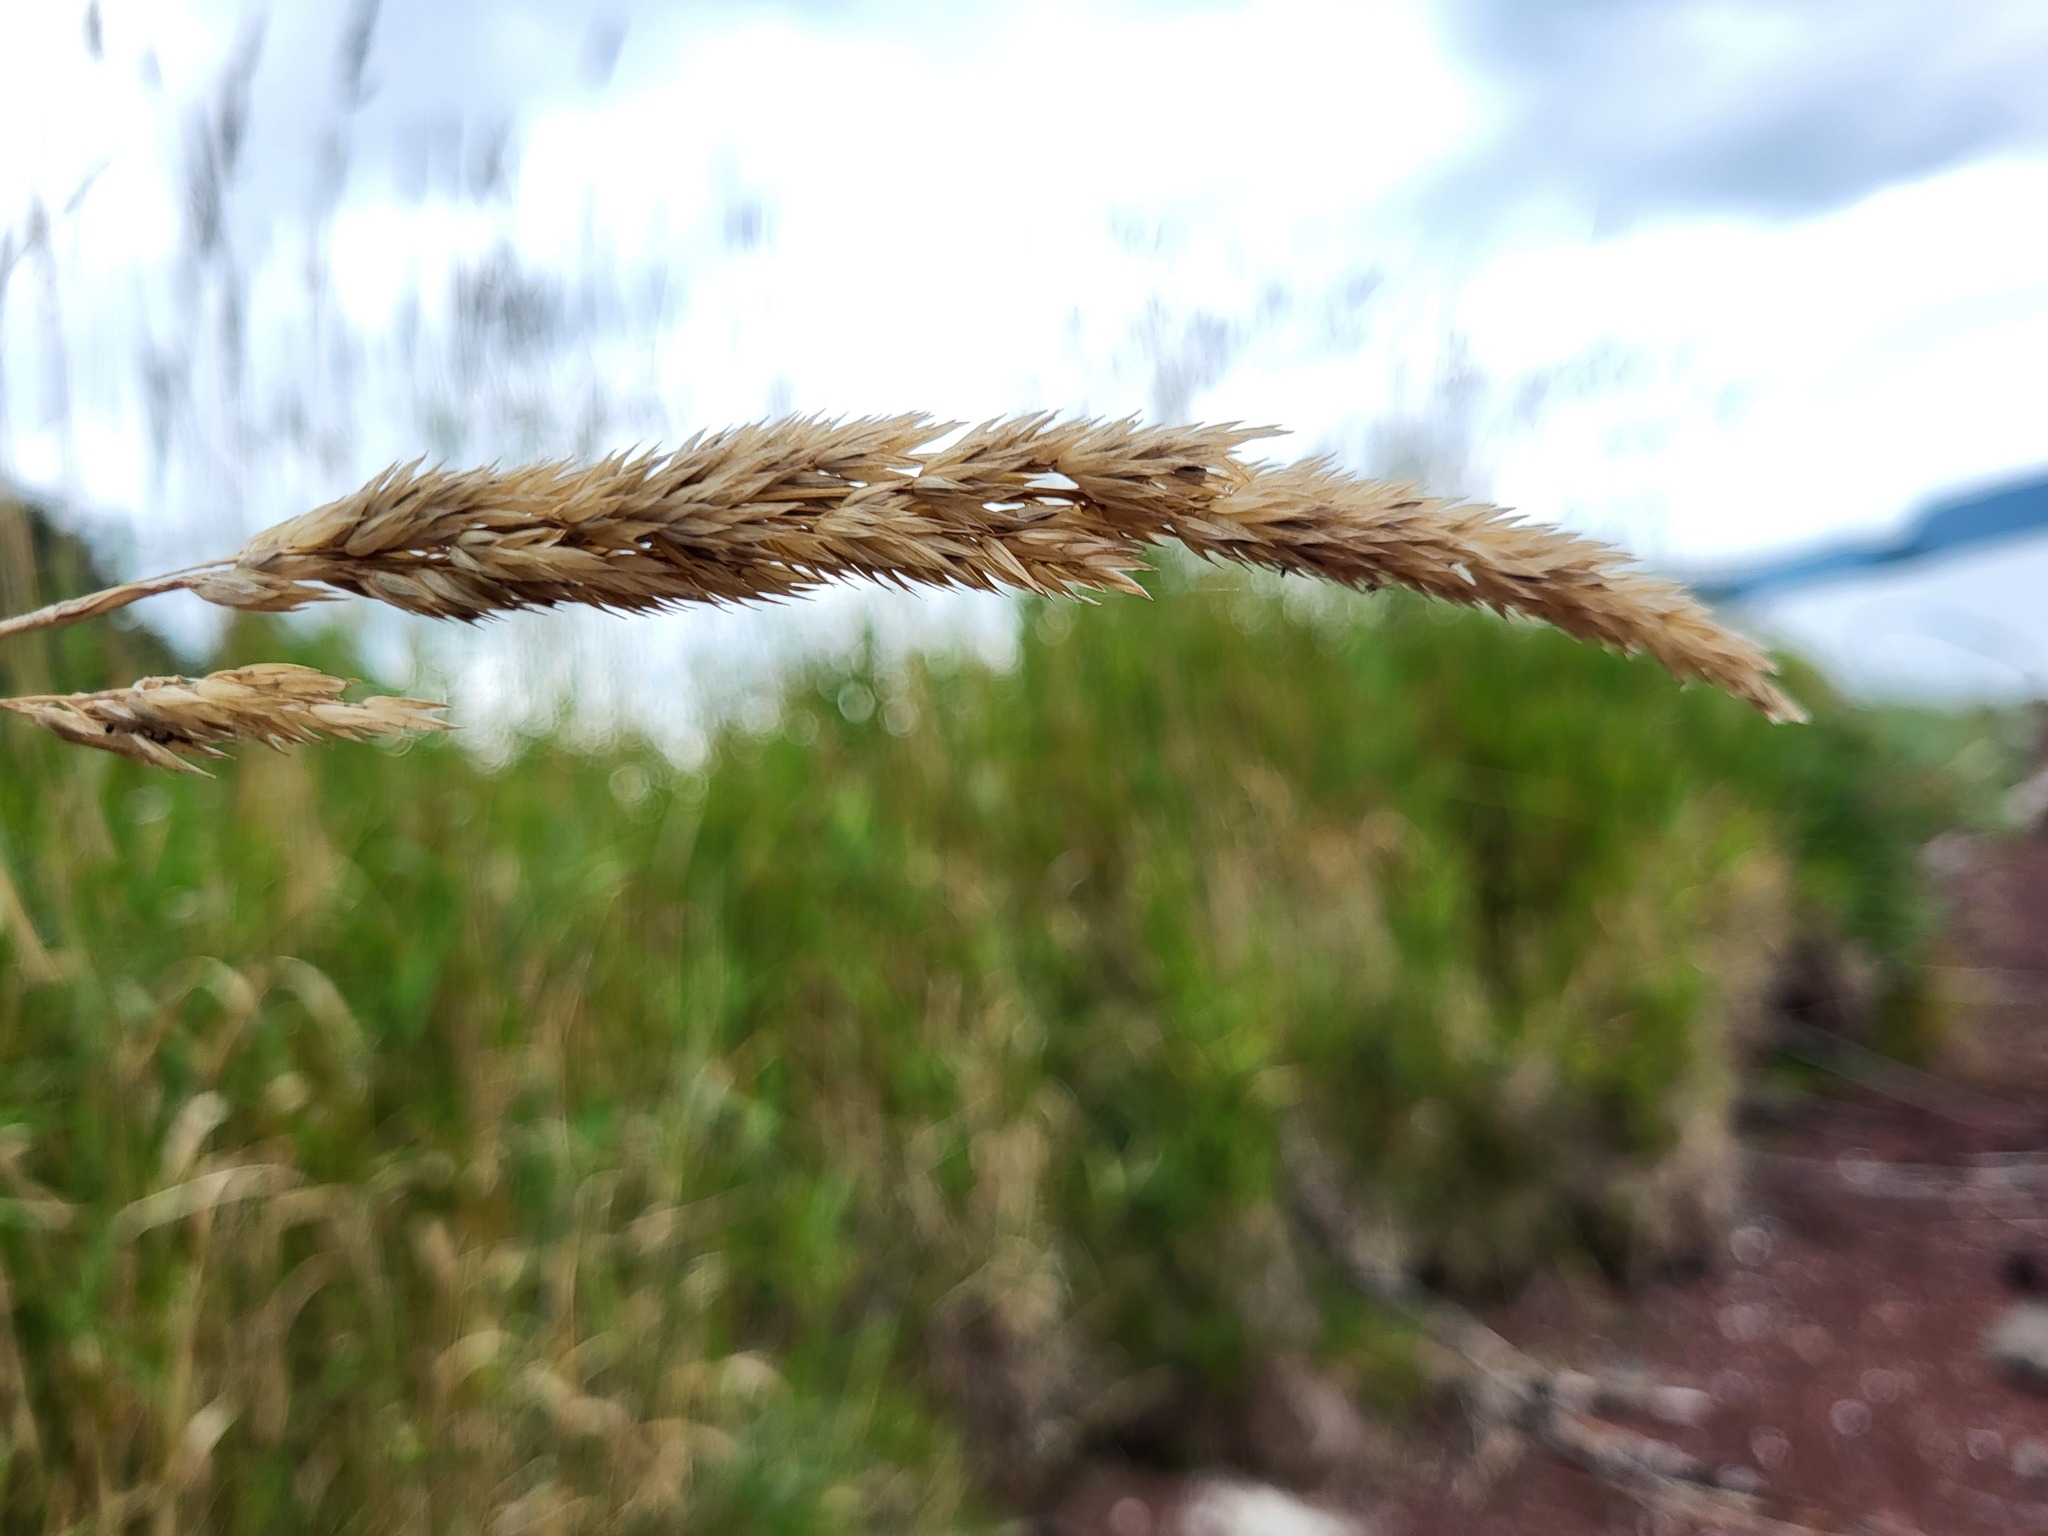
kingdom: Plantae
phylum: Tracheophyta
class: Liliopsida
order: Poales
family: Poaceae
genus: Phalaris
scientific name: Phalaris arundinacea
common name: Reed canary-grass
